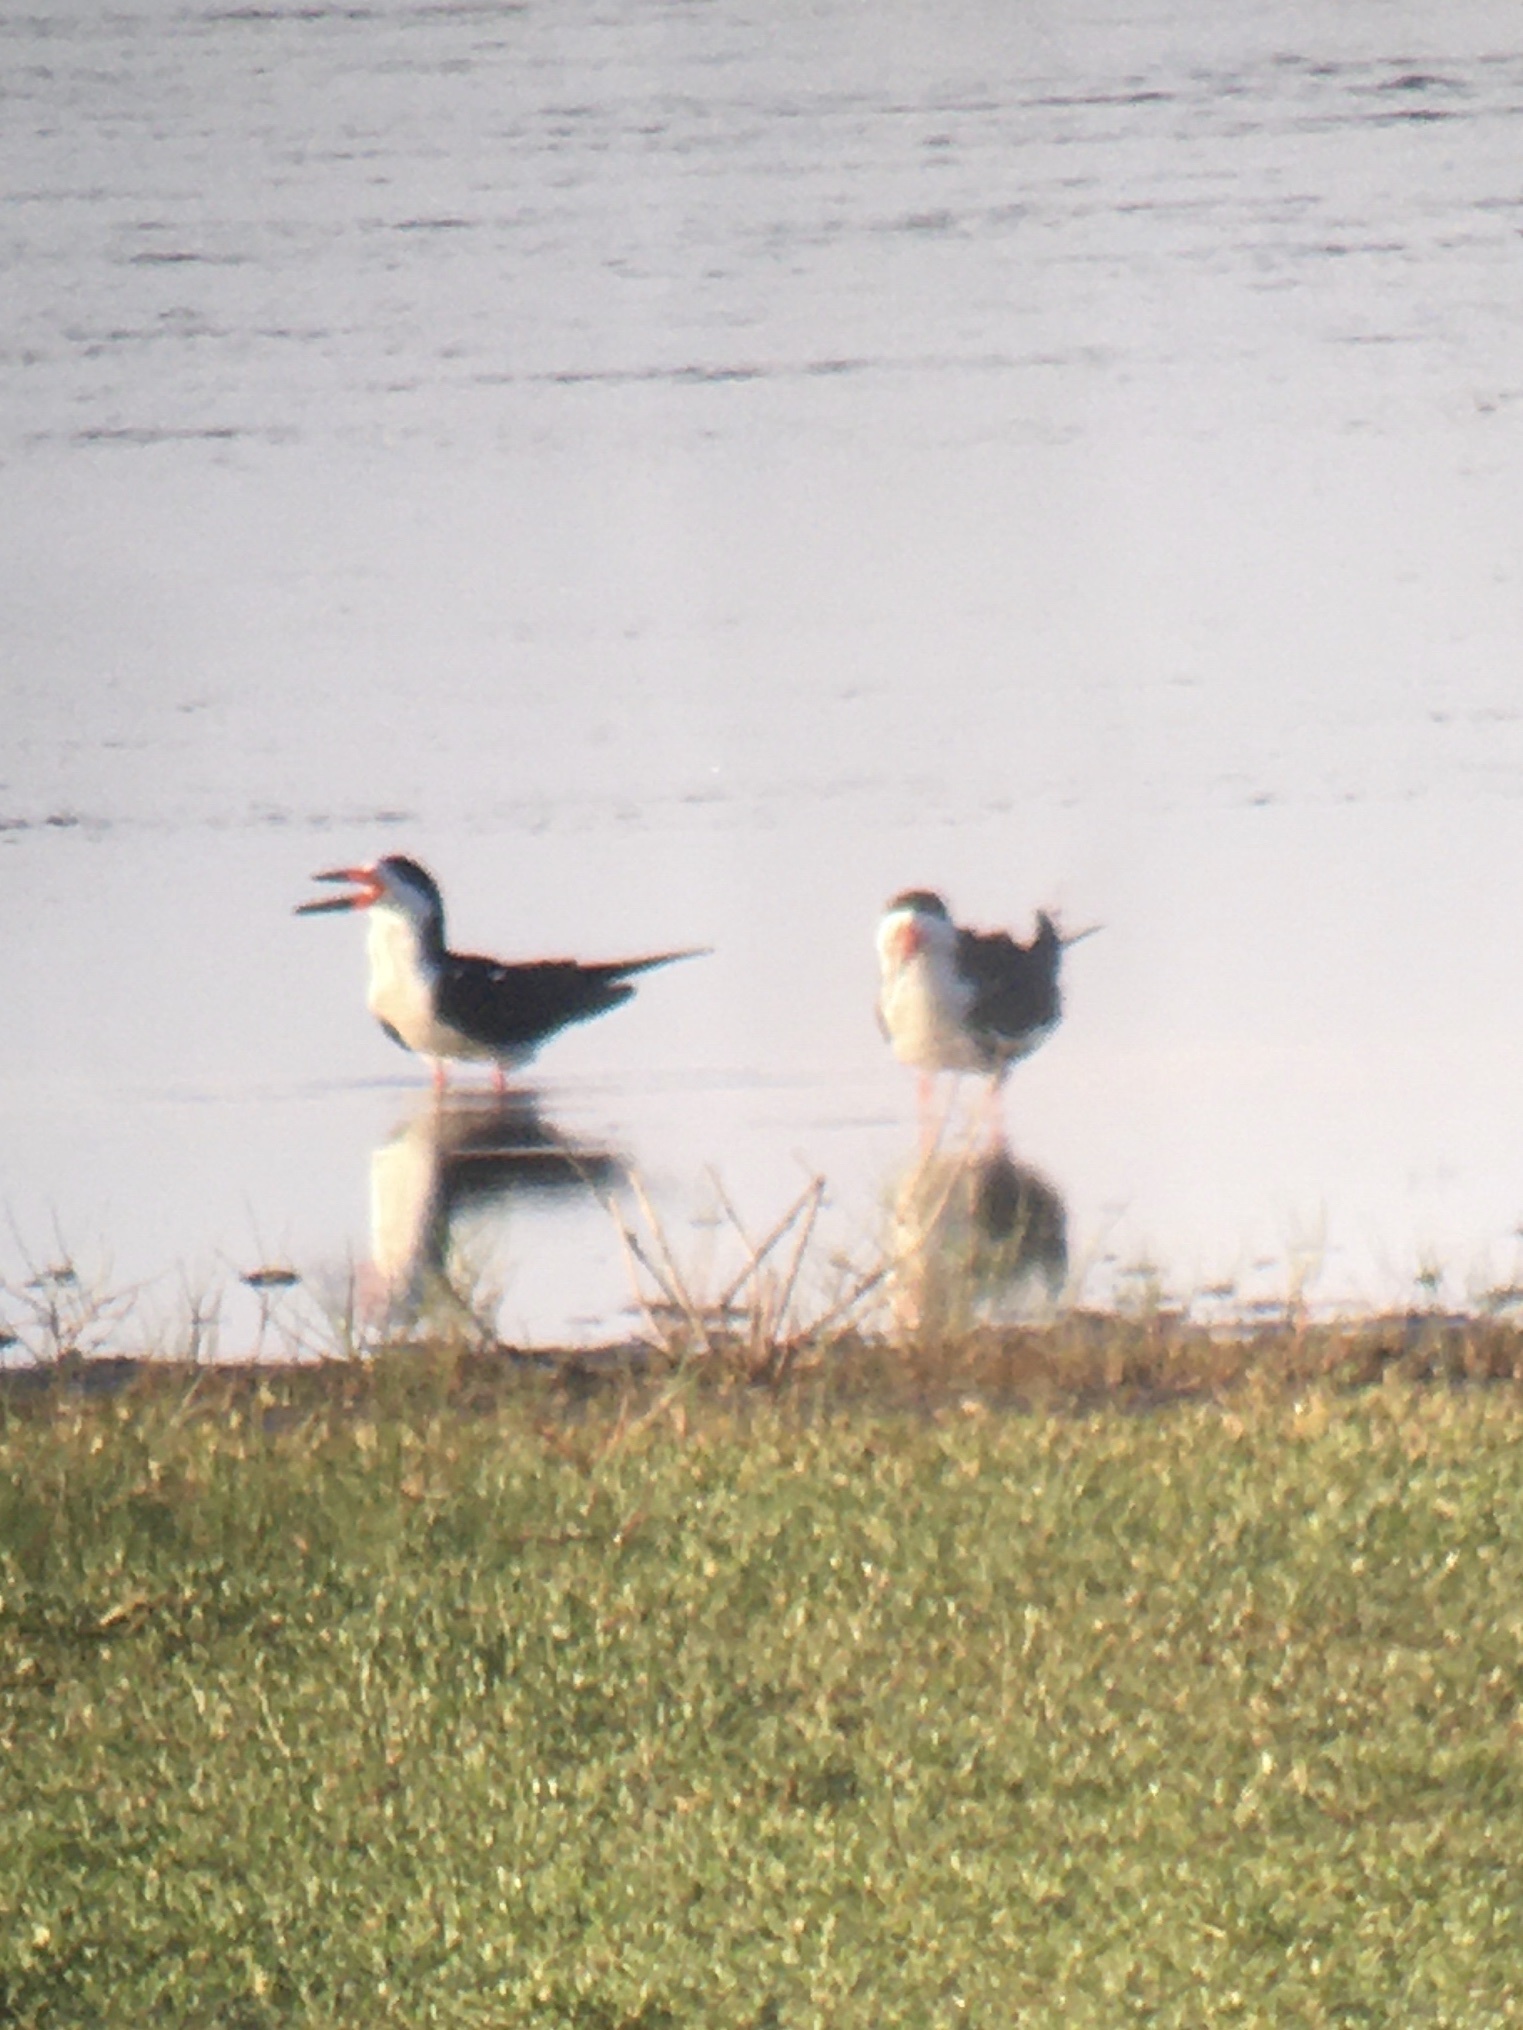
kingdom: Animalia
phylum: Chordata
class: Aves
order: Charadriiformes
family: Laridae
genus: Rynchops
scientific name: Rynchops niger
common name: Black skimmer
